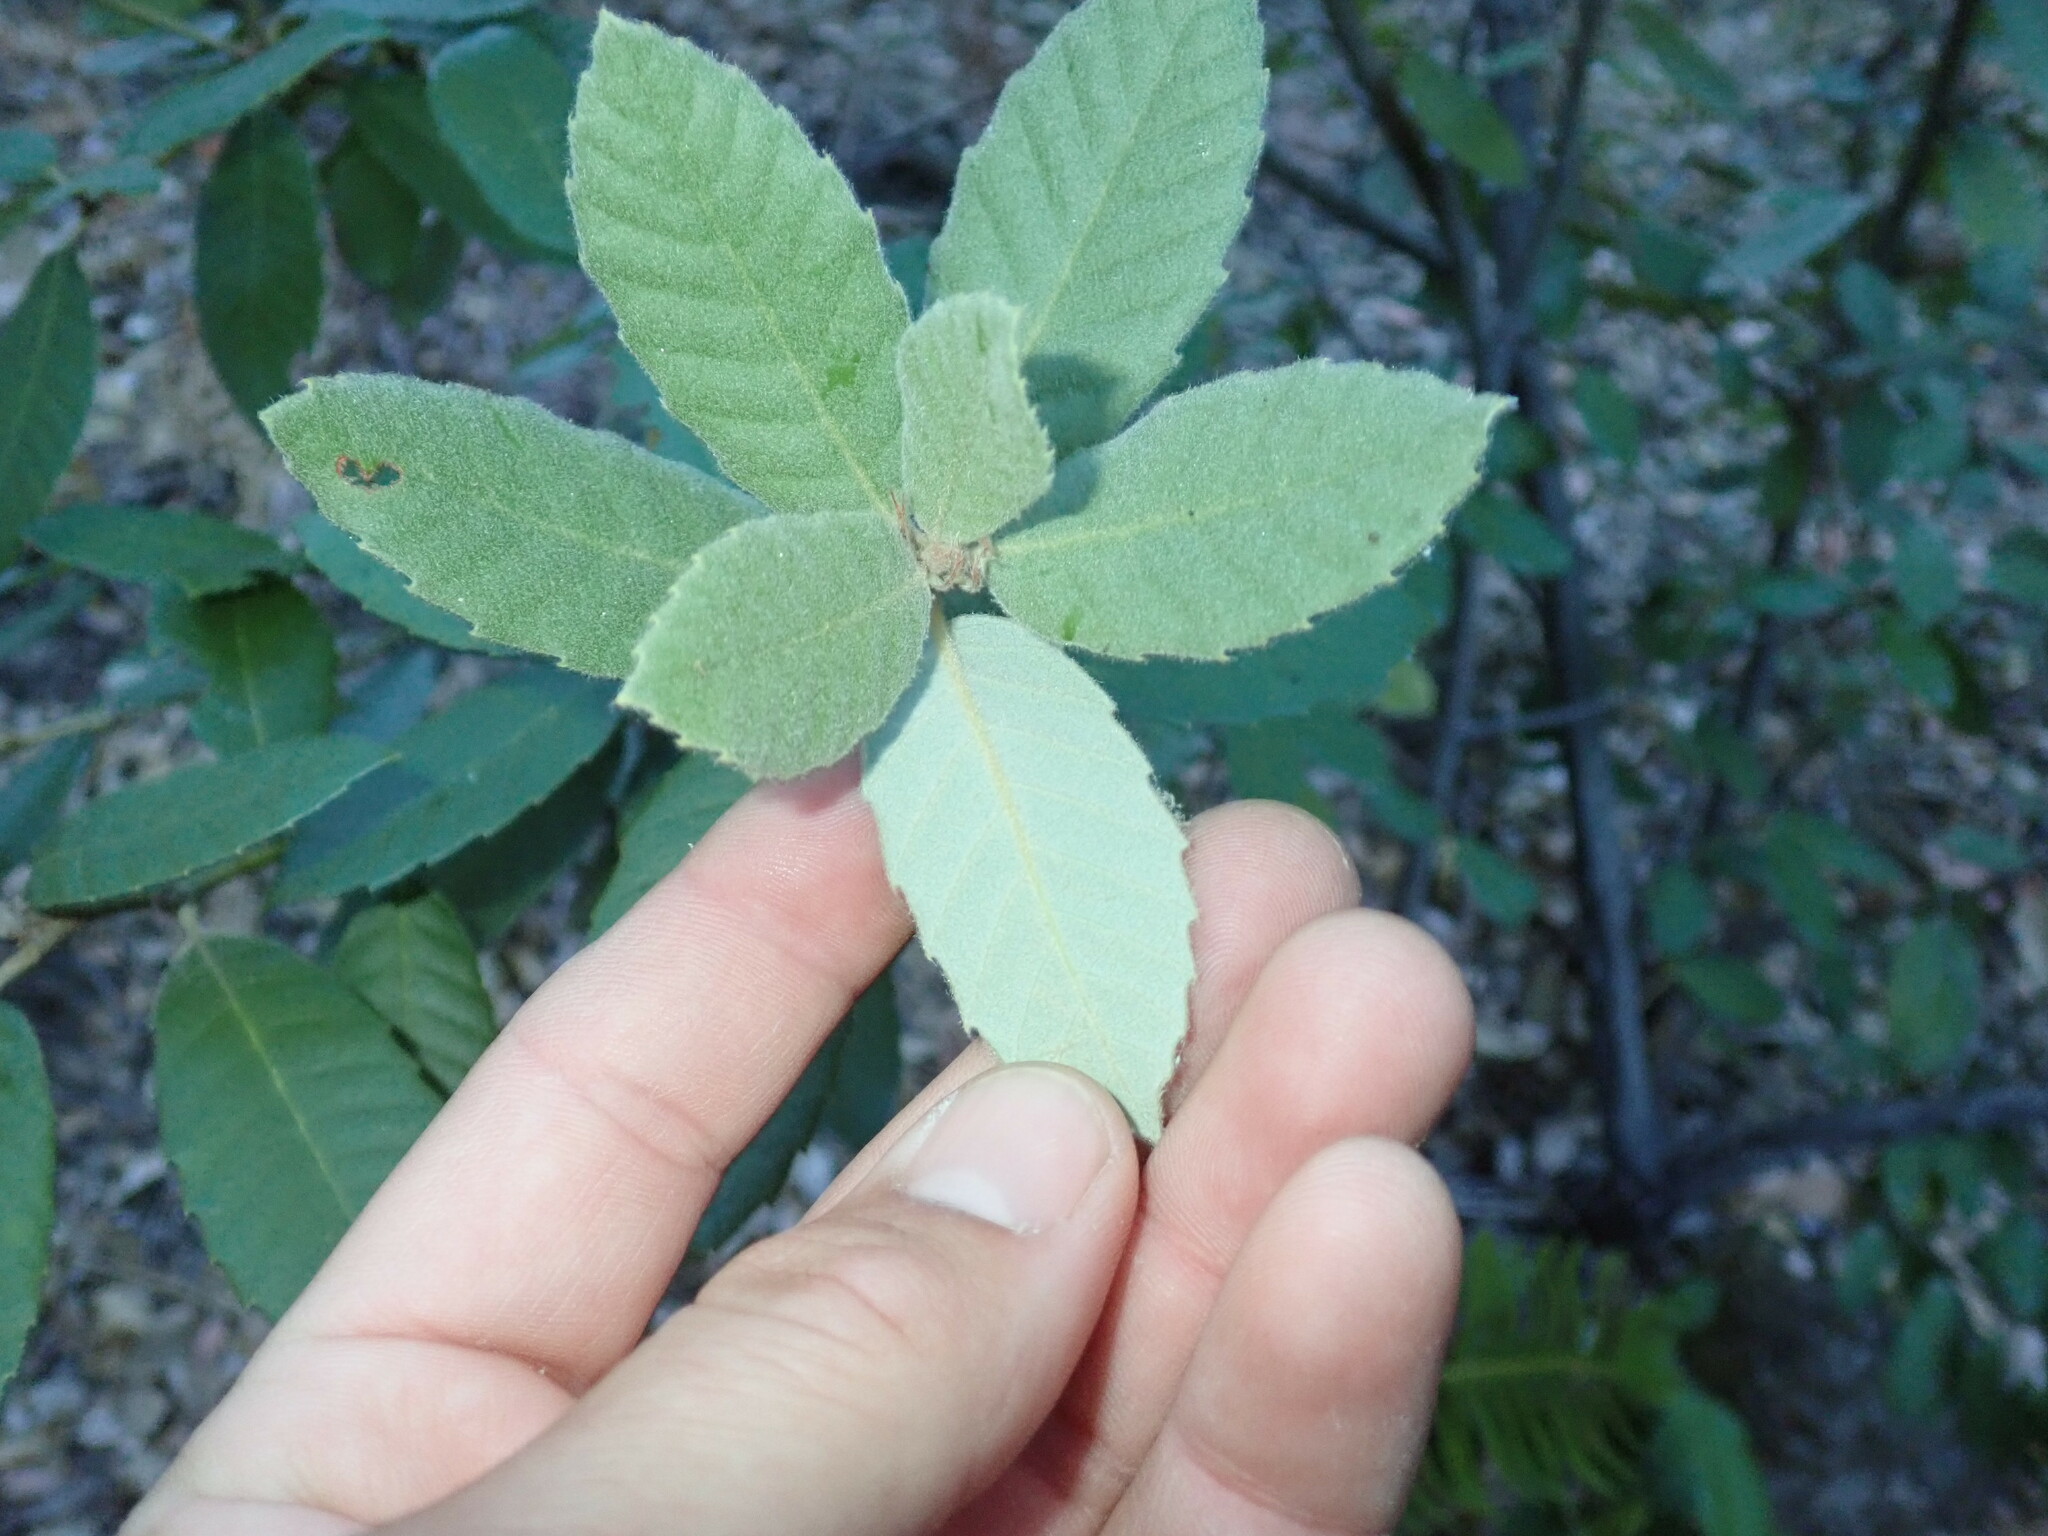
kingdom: Plantae
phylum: Tracheophyta
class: Magnoliopsida
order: Fagales
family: Fagaceae
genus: Notholithocarpus
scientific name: Notholithocarpus densiflorus
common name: Tan bark oak
